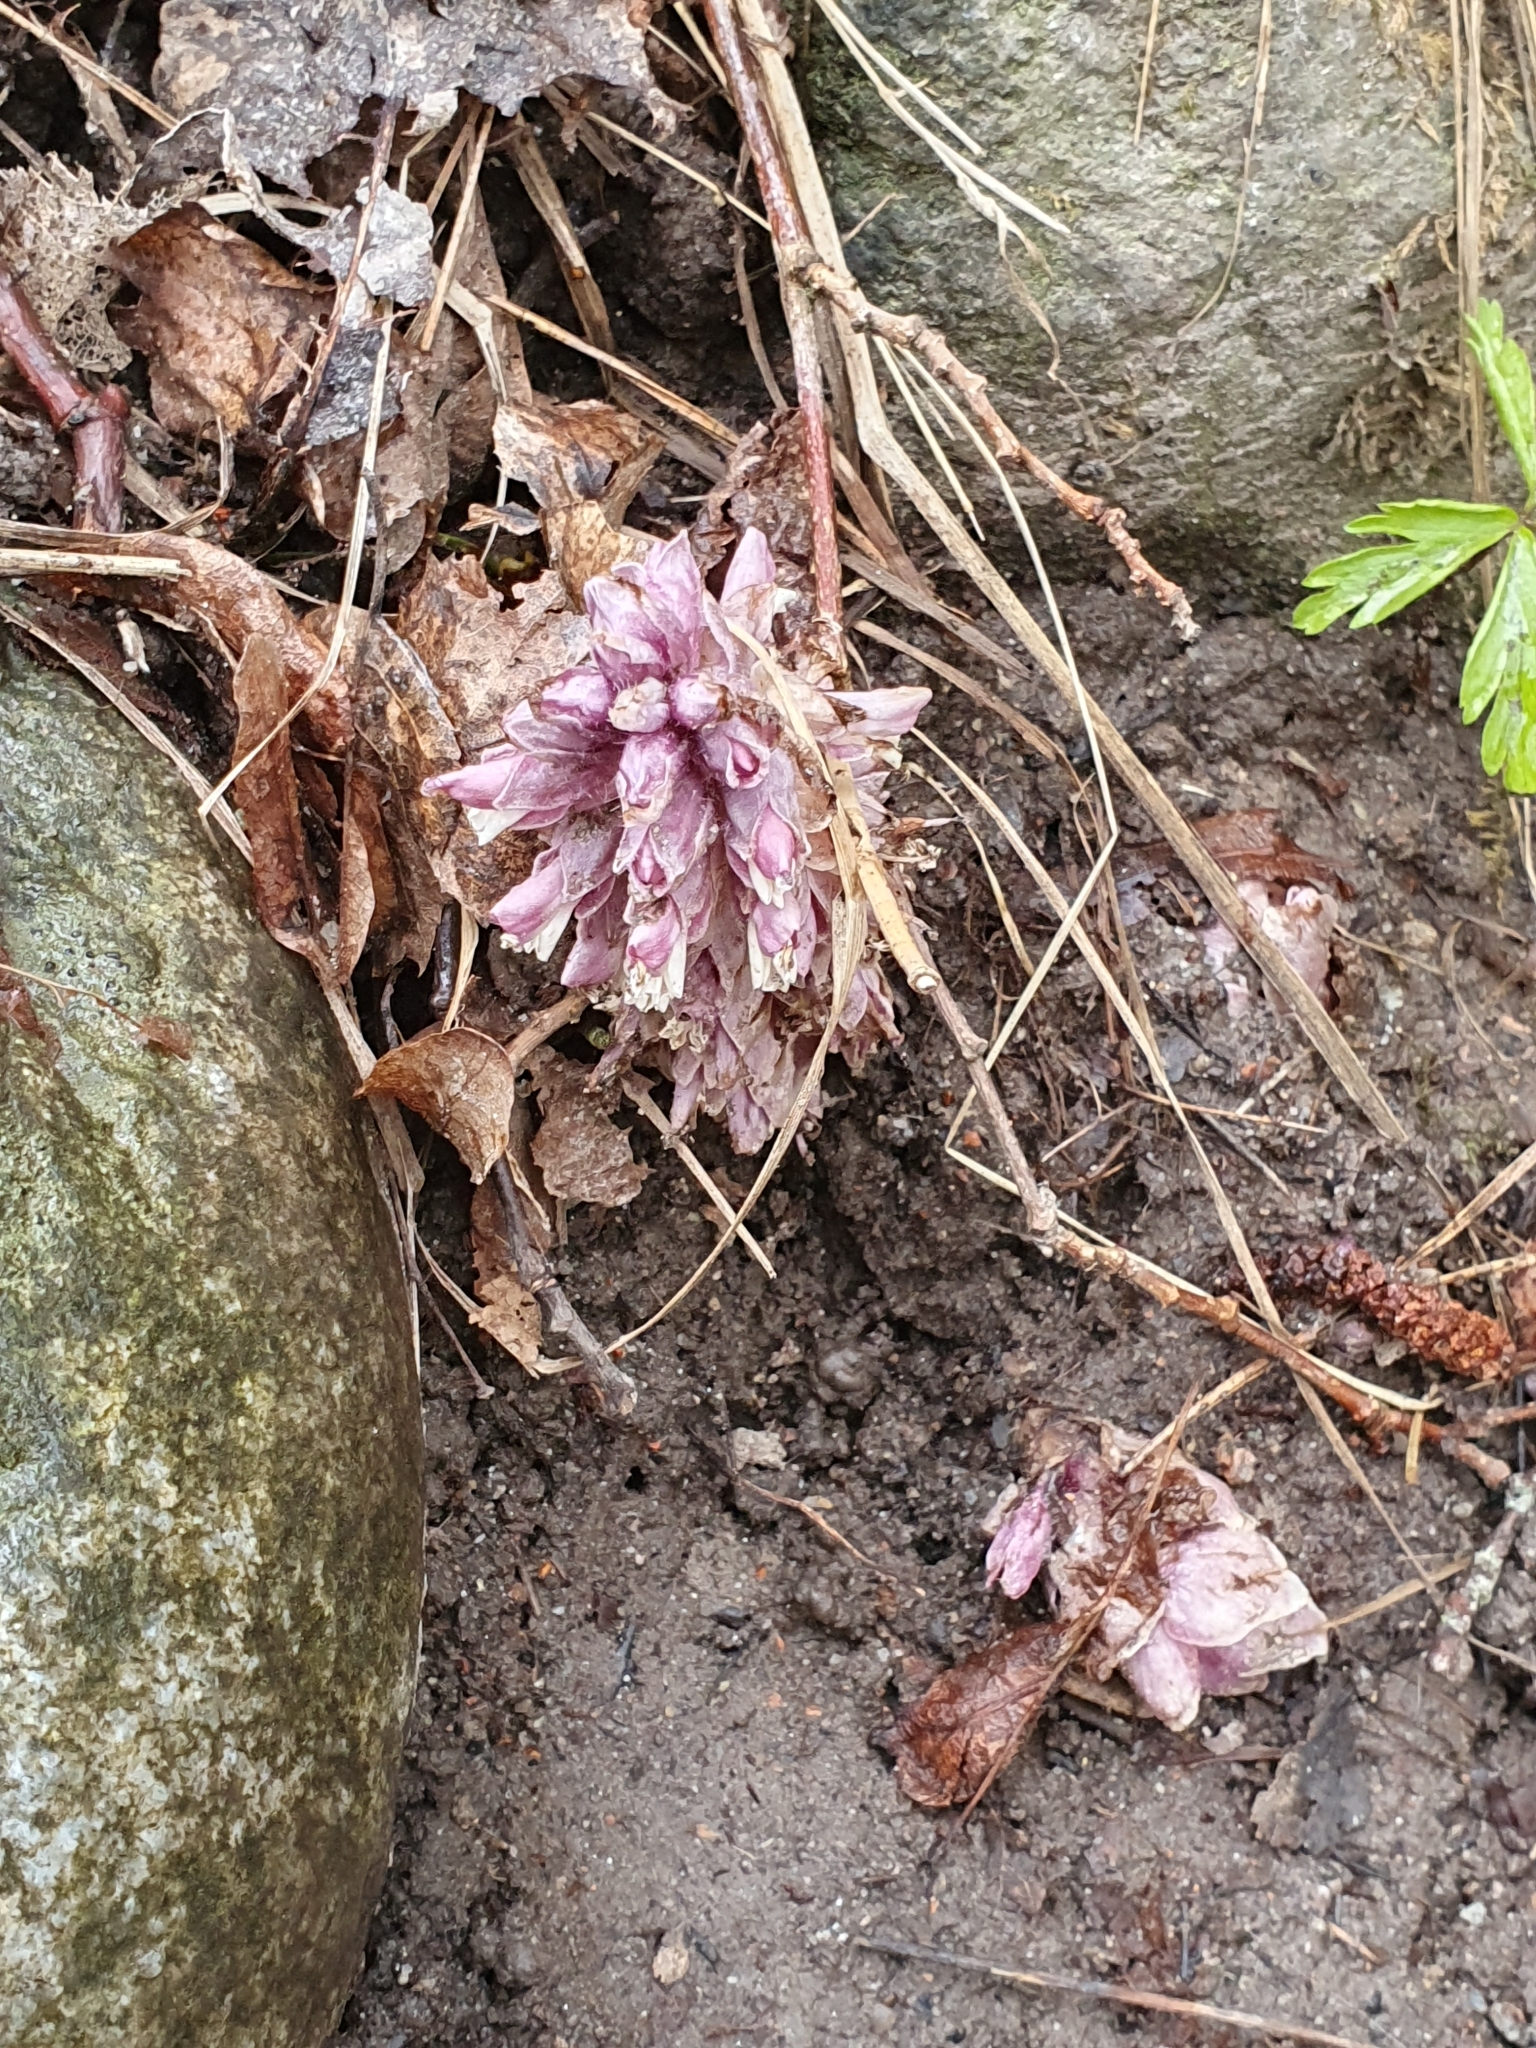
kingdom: Plantae
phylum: Tracheophyta
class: Magnoliopsida
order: Lamiales
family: Orobanchaceae
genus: Lathraea
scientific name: Lathraea squamaria
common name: Toothwort
